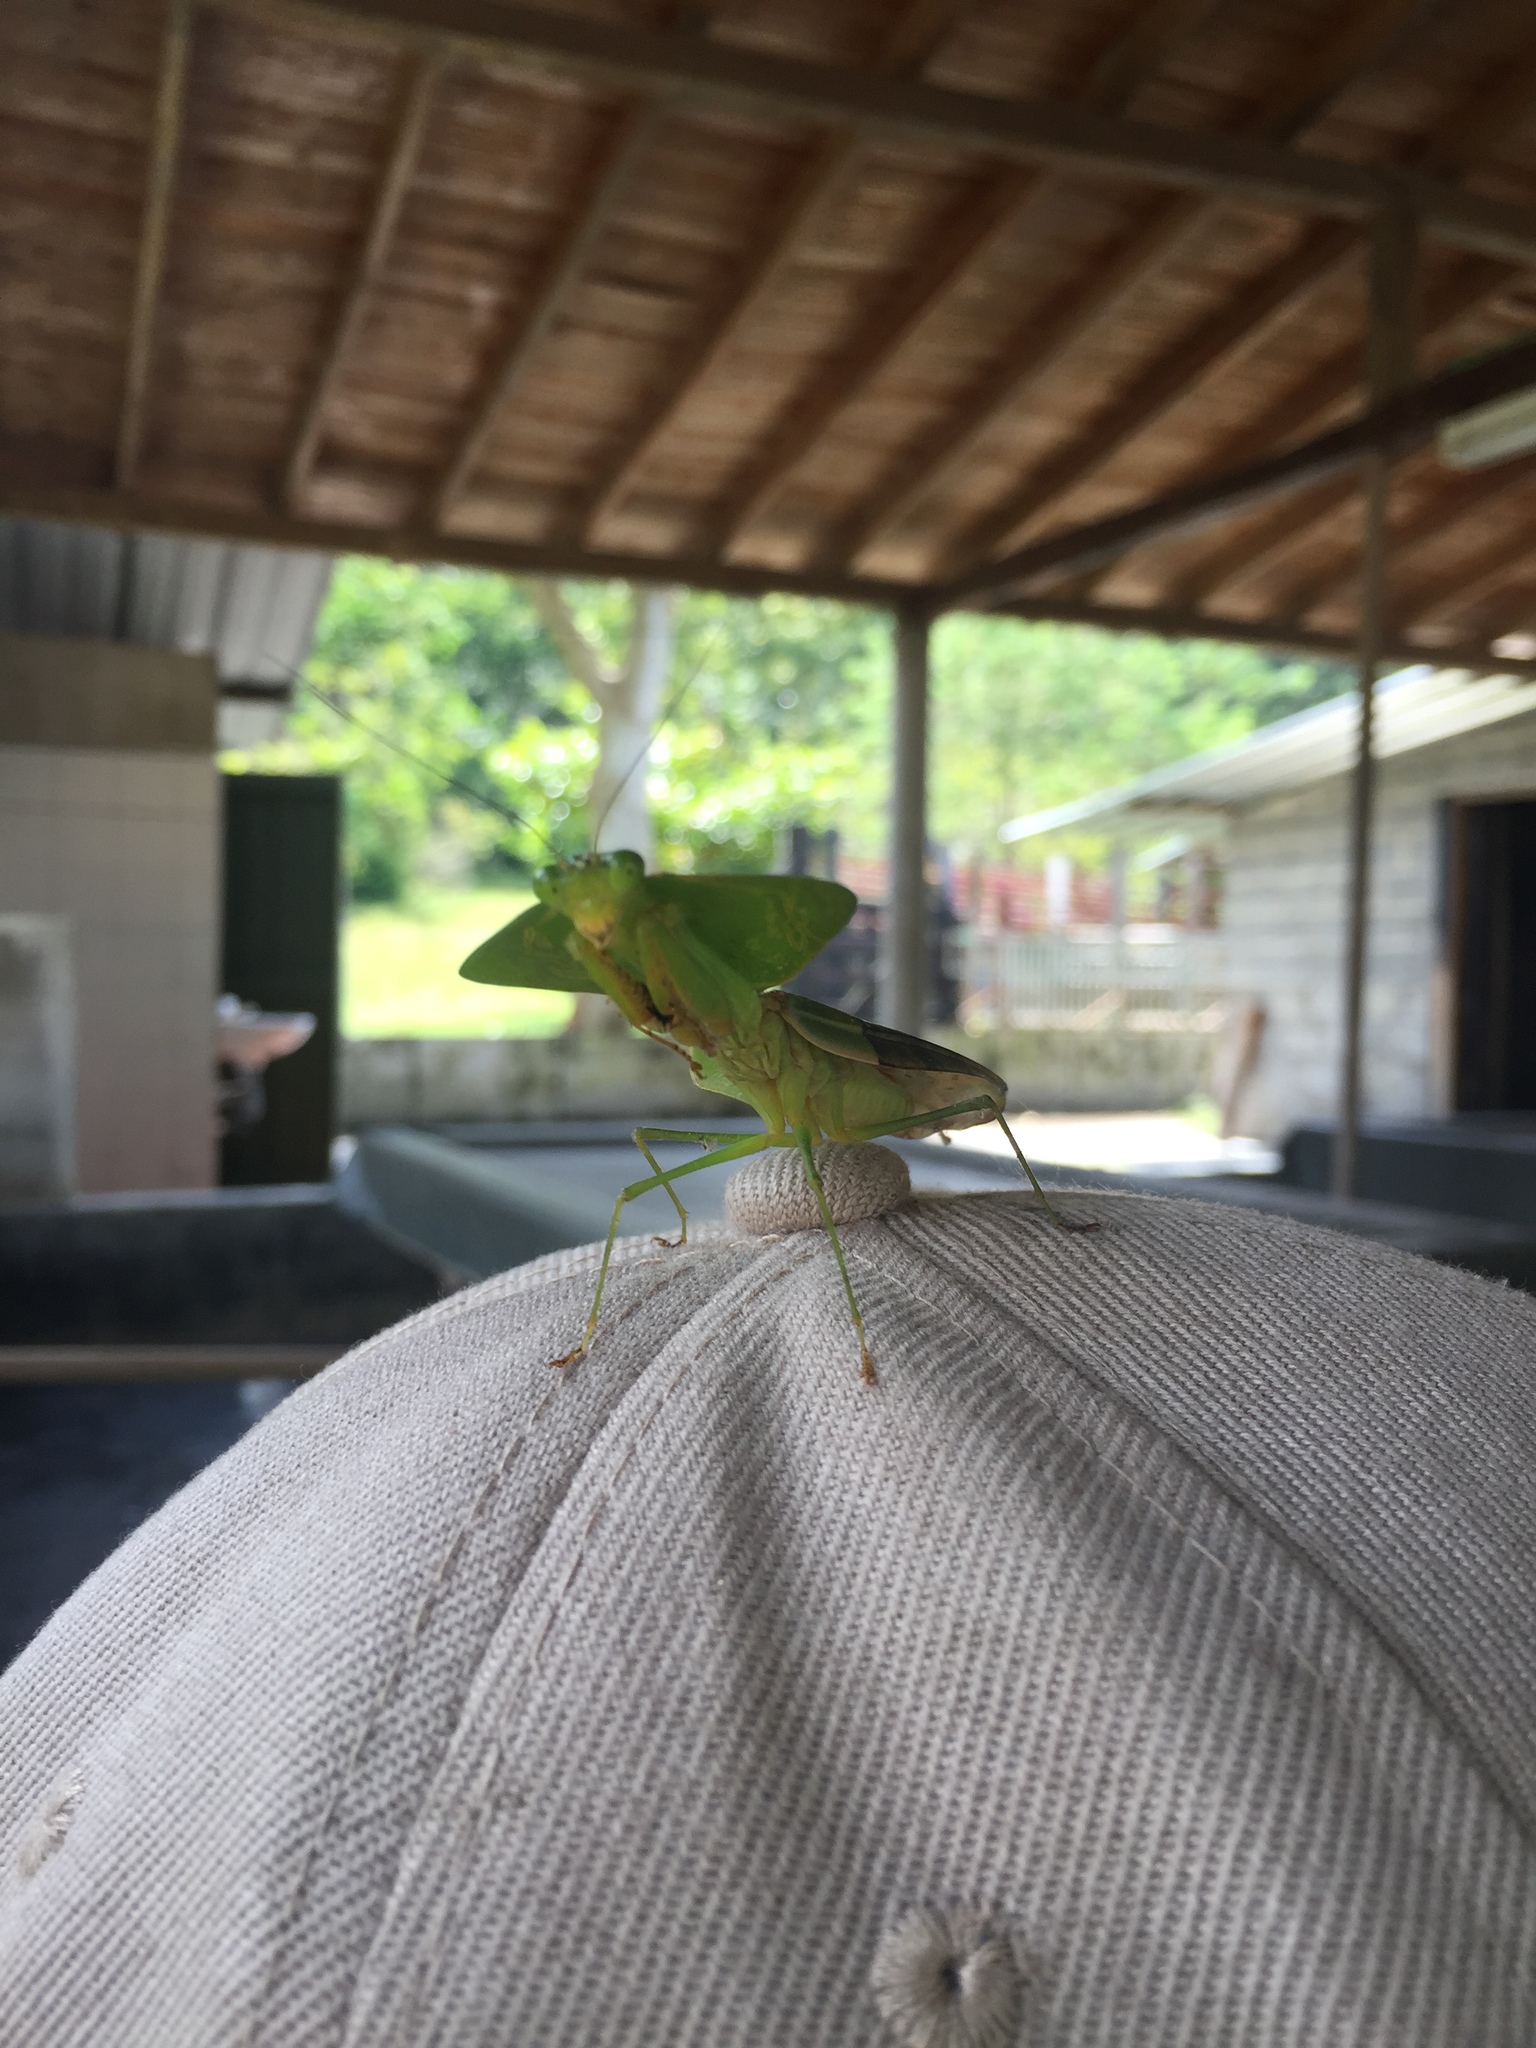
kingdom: Animalia
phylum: Arthropoda
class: Insecta
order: Mantodea
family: Mantidae
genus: Choeradodis
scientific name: Choeradodis rhombicollis
